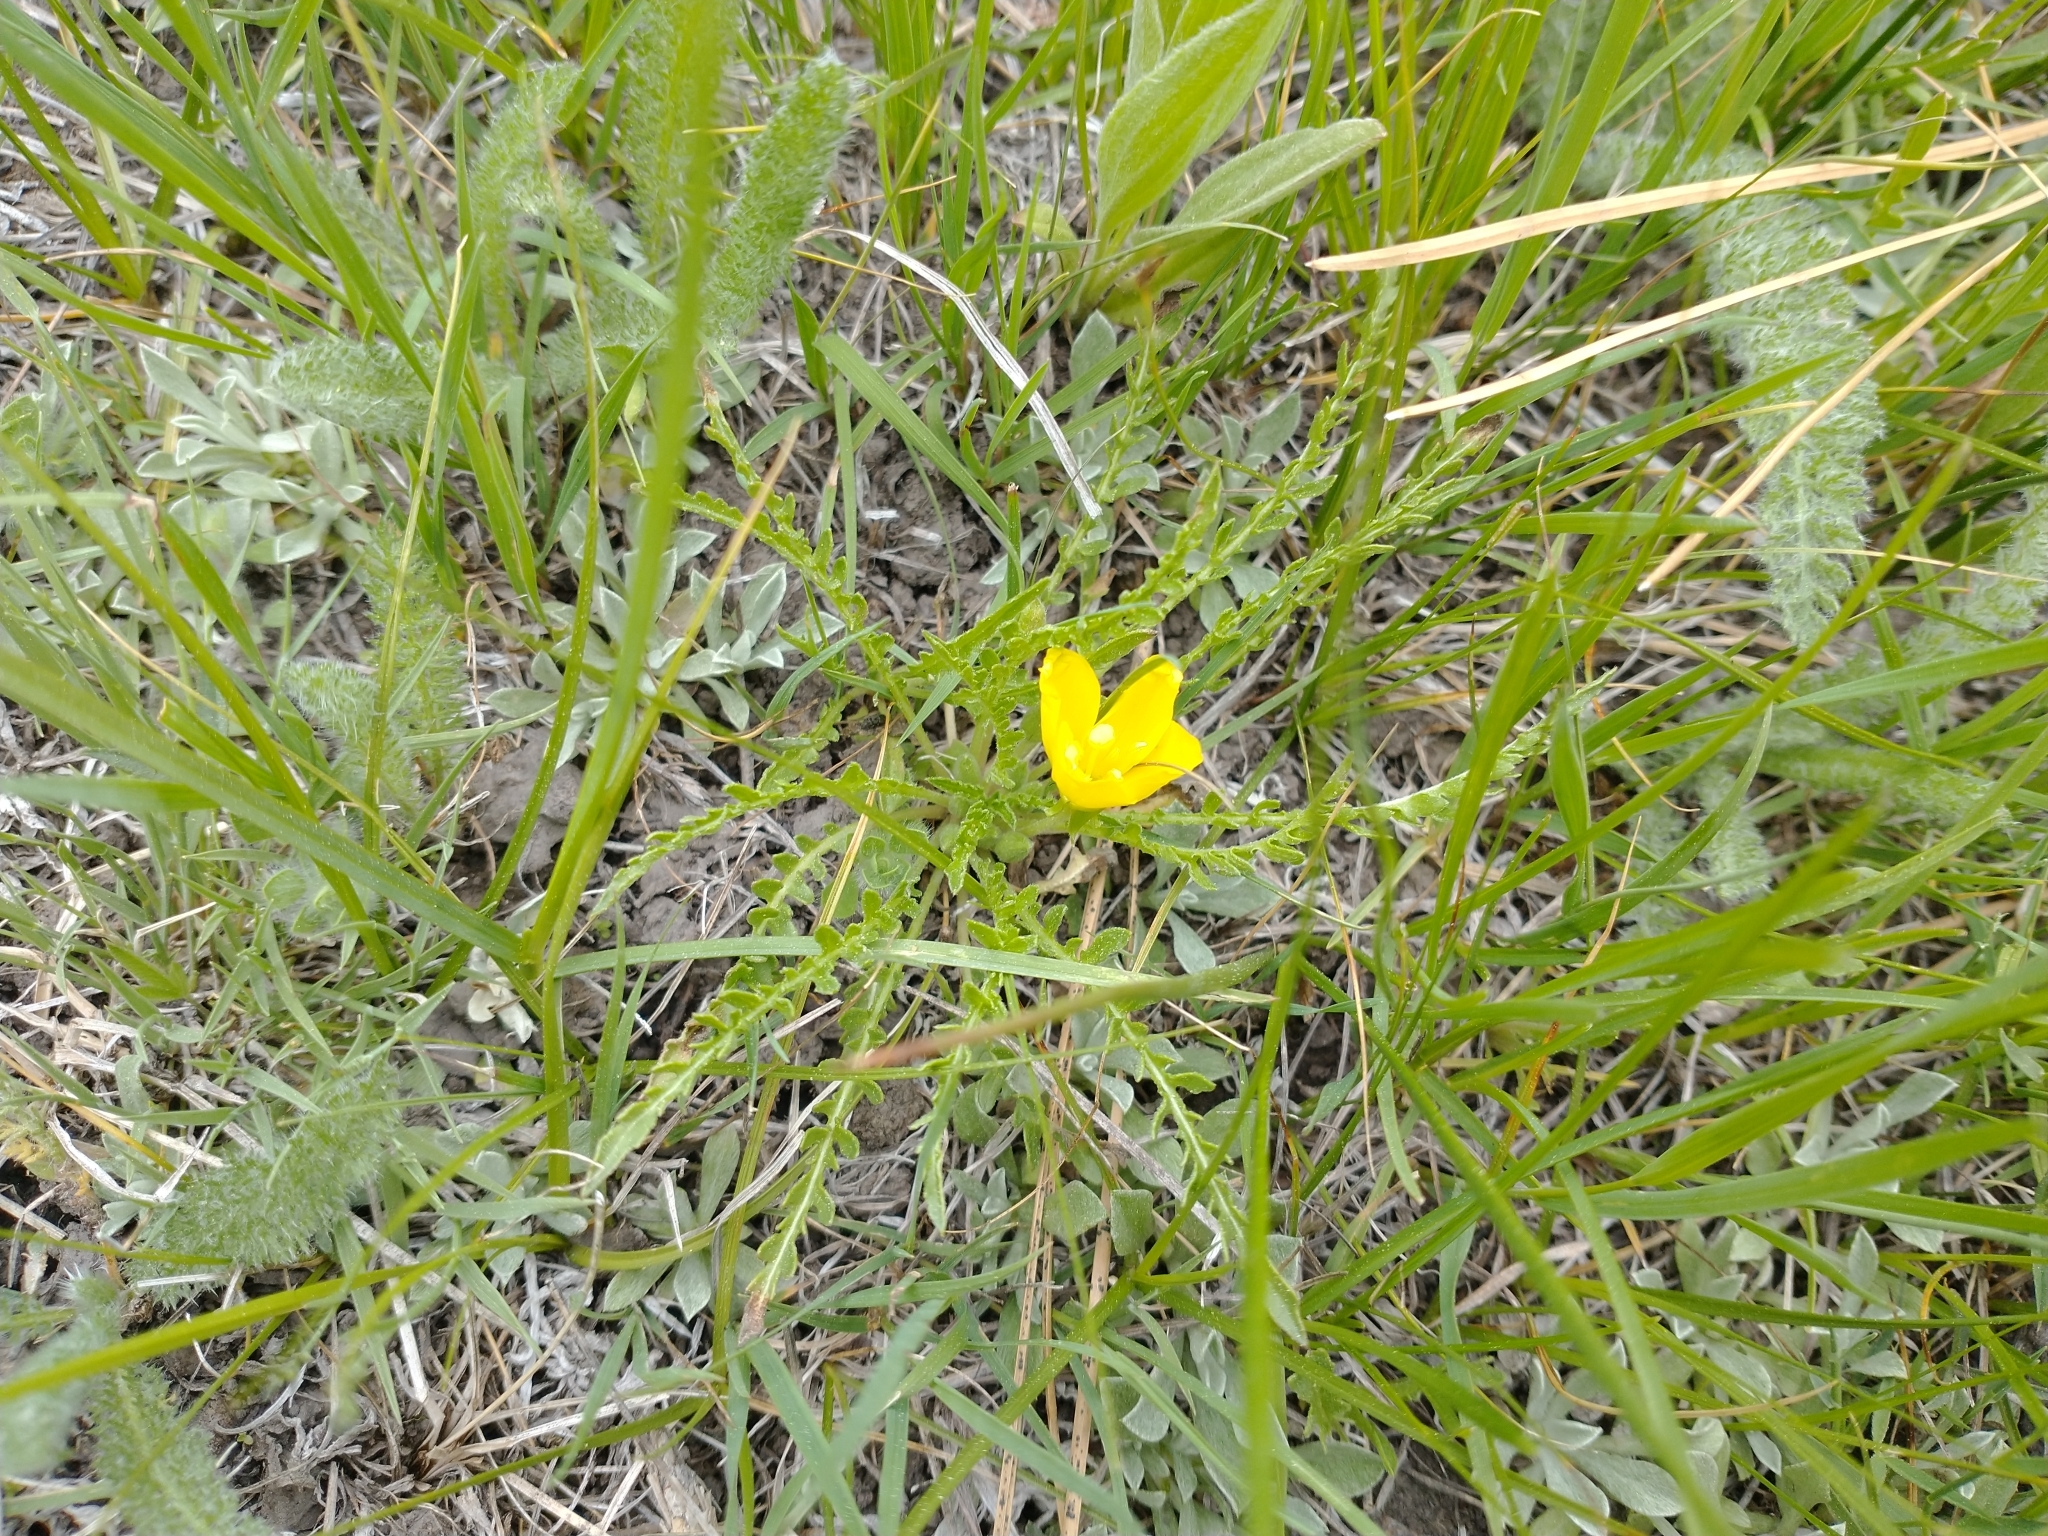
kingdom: Plantae
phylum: Tracheophyta
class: Magnoliopsida
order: Myrtales
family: Onagraceae
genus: Taraxia
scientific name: Taraxia tanacetifolia
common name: Tansyleaf evening primrose
